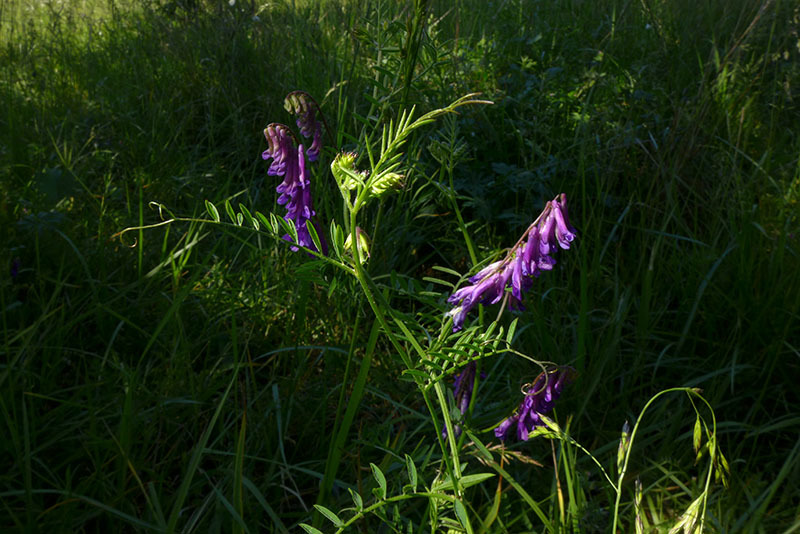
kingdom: Plantae
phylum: Tracheophyta
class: Magnoliopsida
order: Fabales
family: Fabaceae
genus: Vicia
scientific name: Vicia villosa
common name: Fodder vetch
